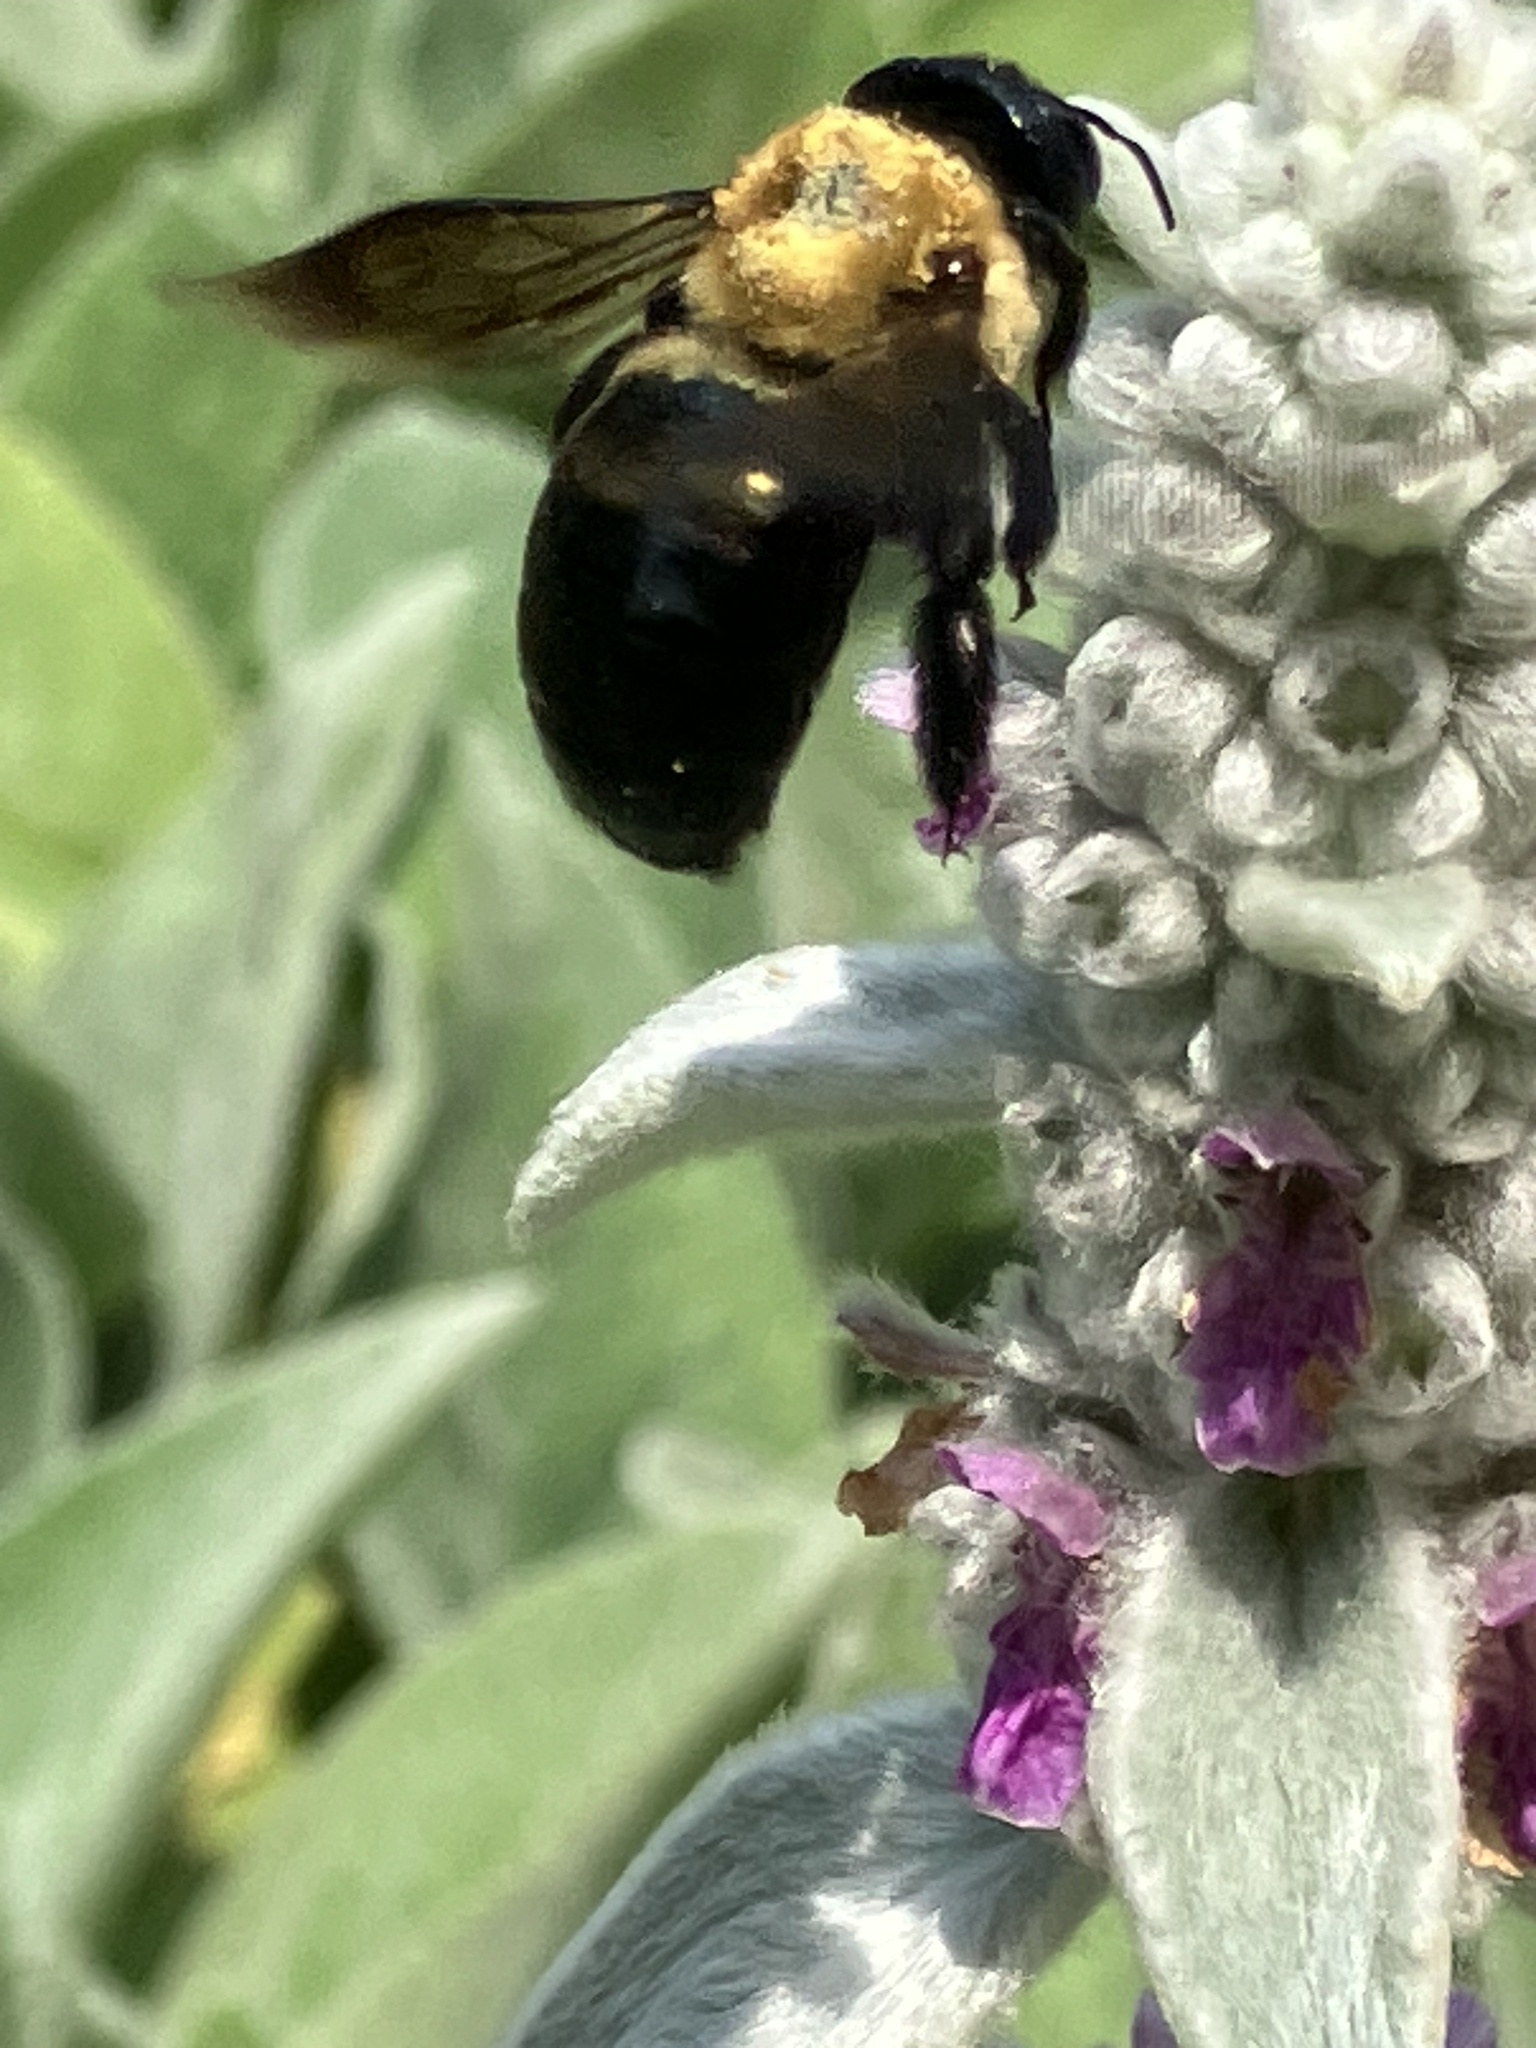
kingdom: Animalia
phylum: Arthropoda
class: Insecta
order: Hymenoptera
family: Apidae
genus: Xylocopa
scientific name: Xylocopa virginica
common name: Carpenter bee
